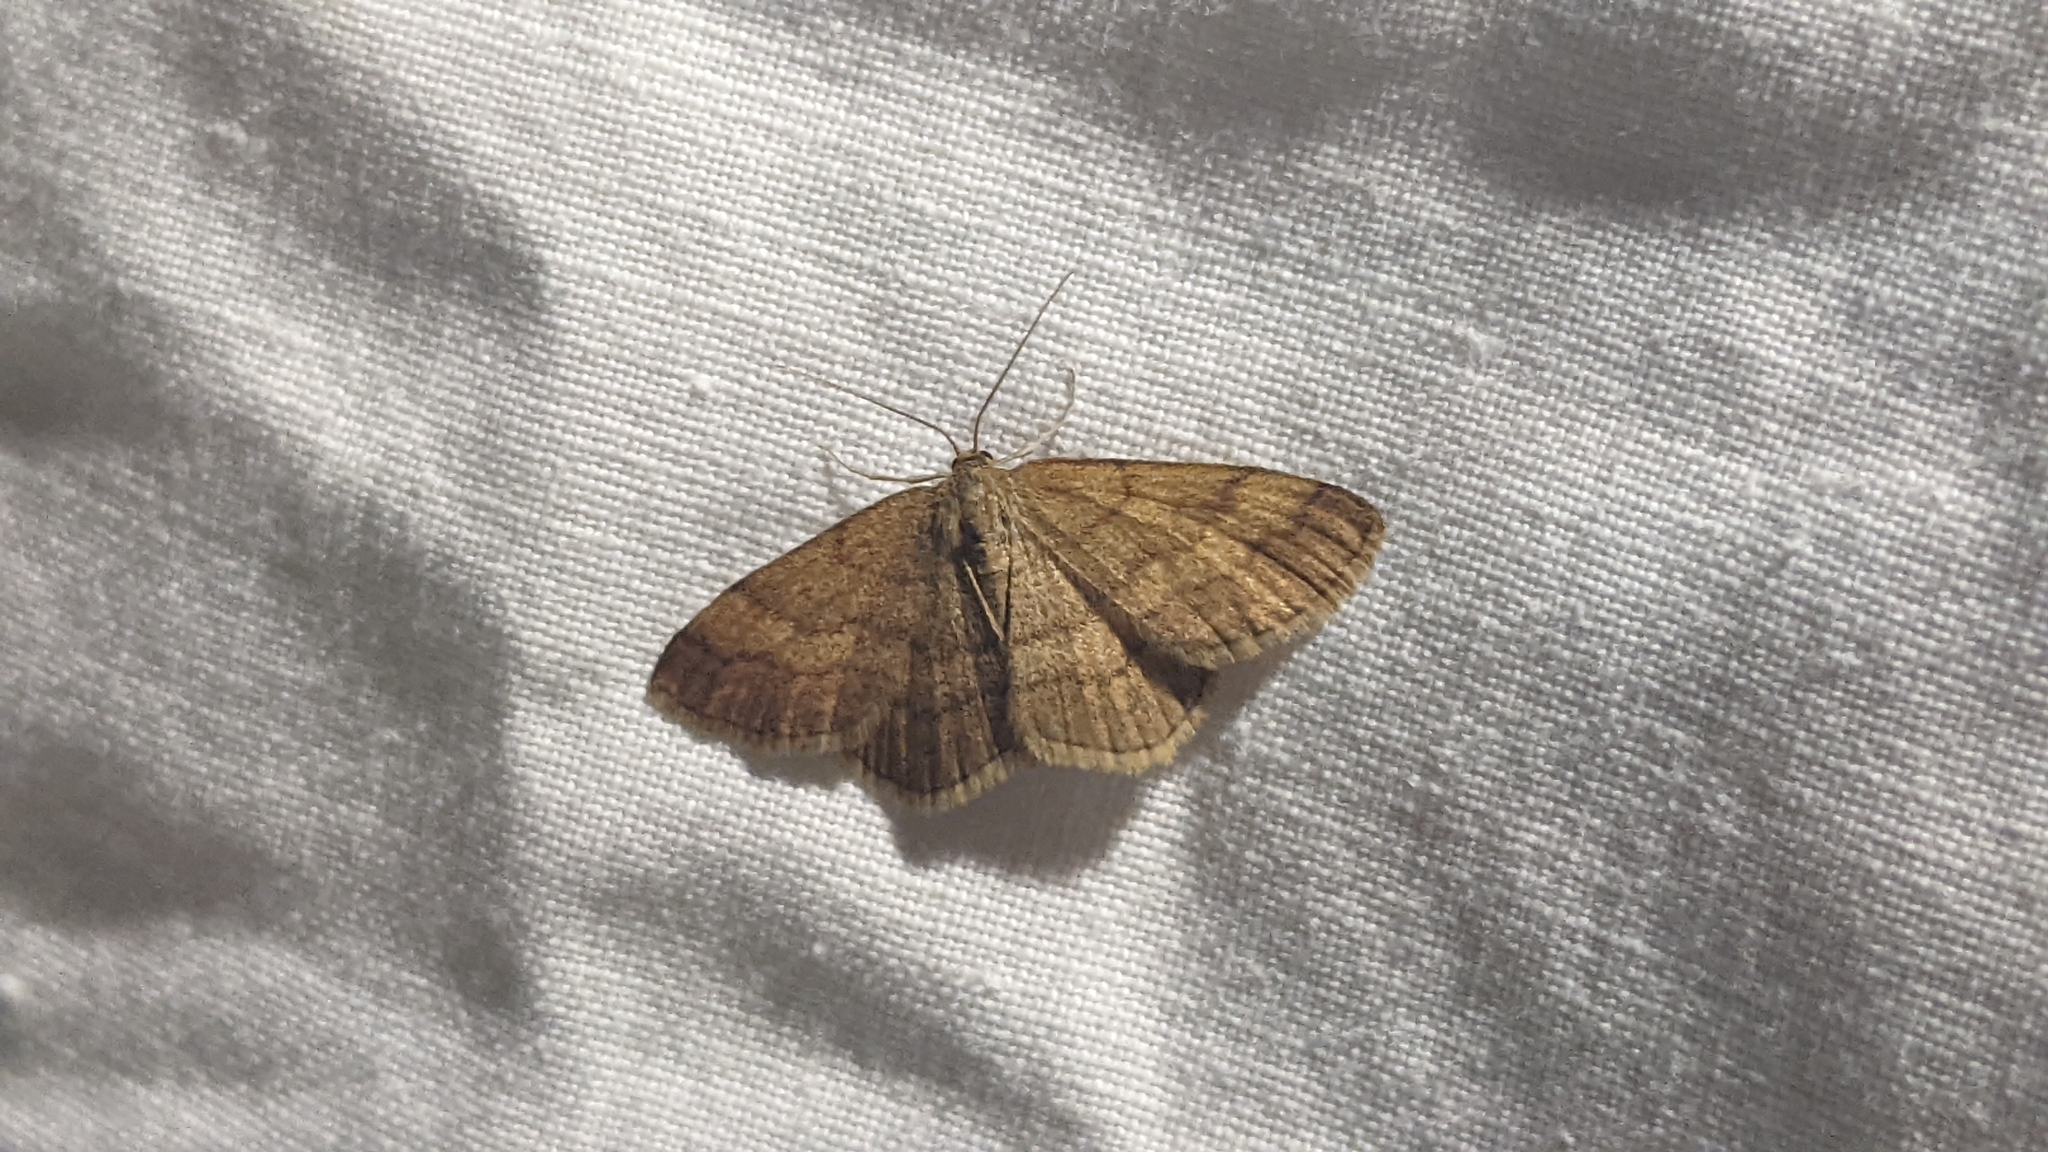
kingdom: Animalia
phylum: Arthropoda
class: Insecta
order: Lepidoptera
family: Geometridae
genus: Scopula
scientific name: Scopula rubiginata
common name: Tawny wave
